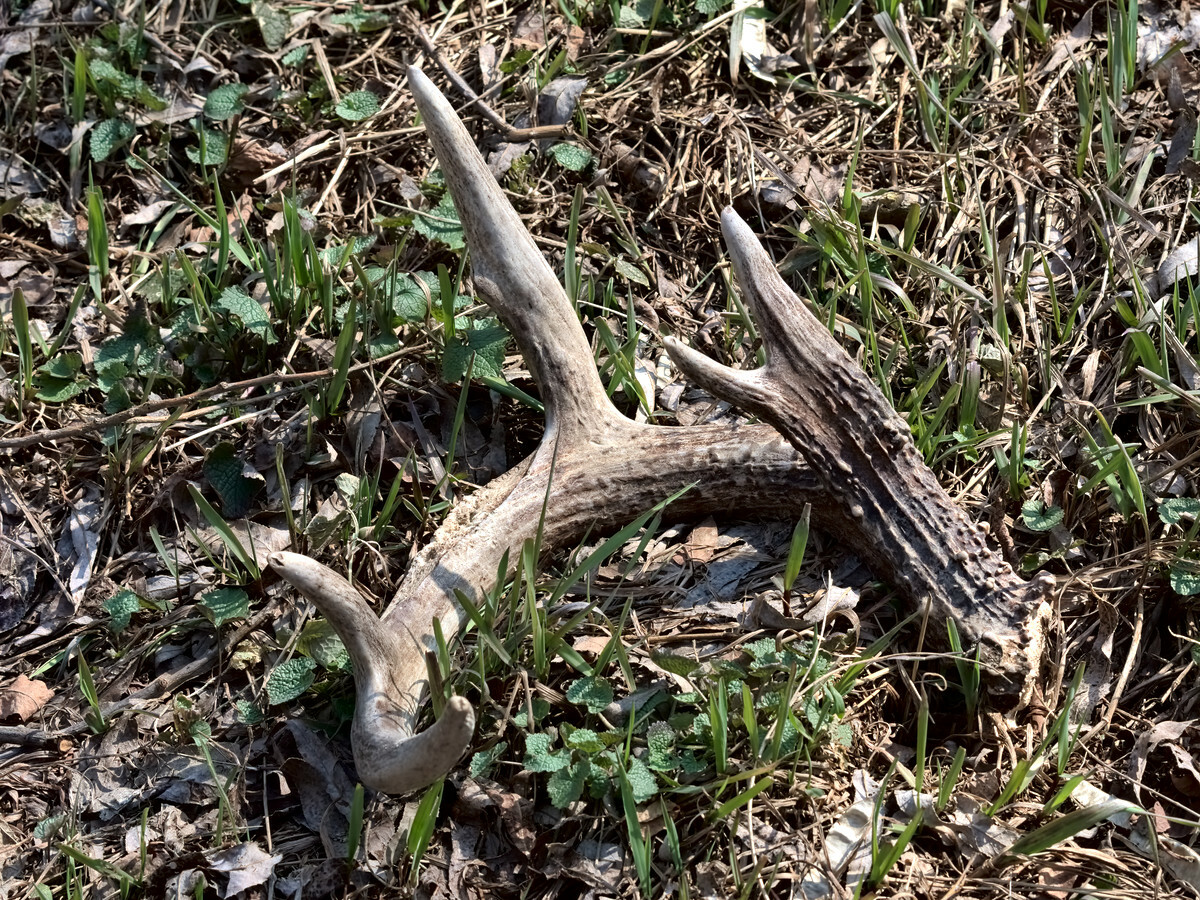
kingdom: Animalia
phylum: Chordata
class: Mammalia
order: Artiodactyla
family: Cervidae
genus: Odocoileus
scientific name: Odocoileus virginianus
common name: White-tailed deer
